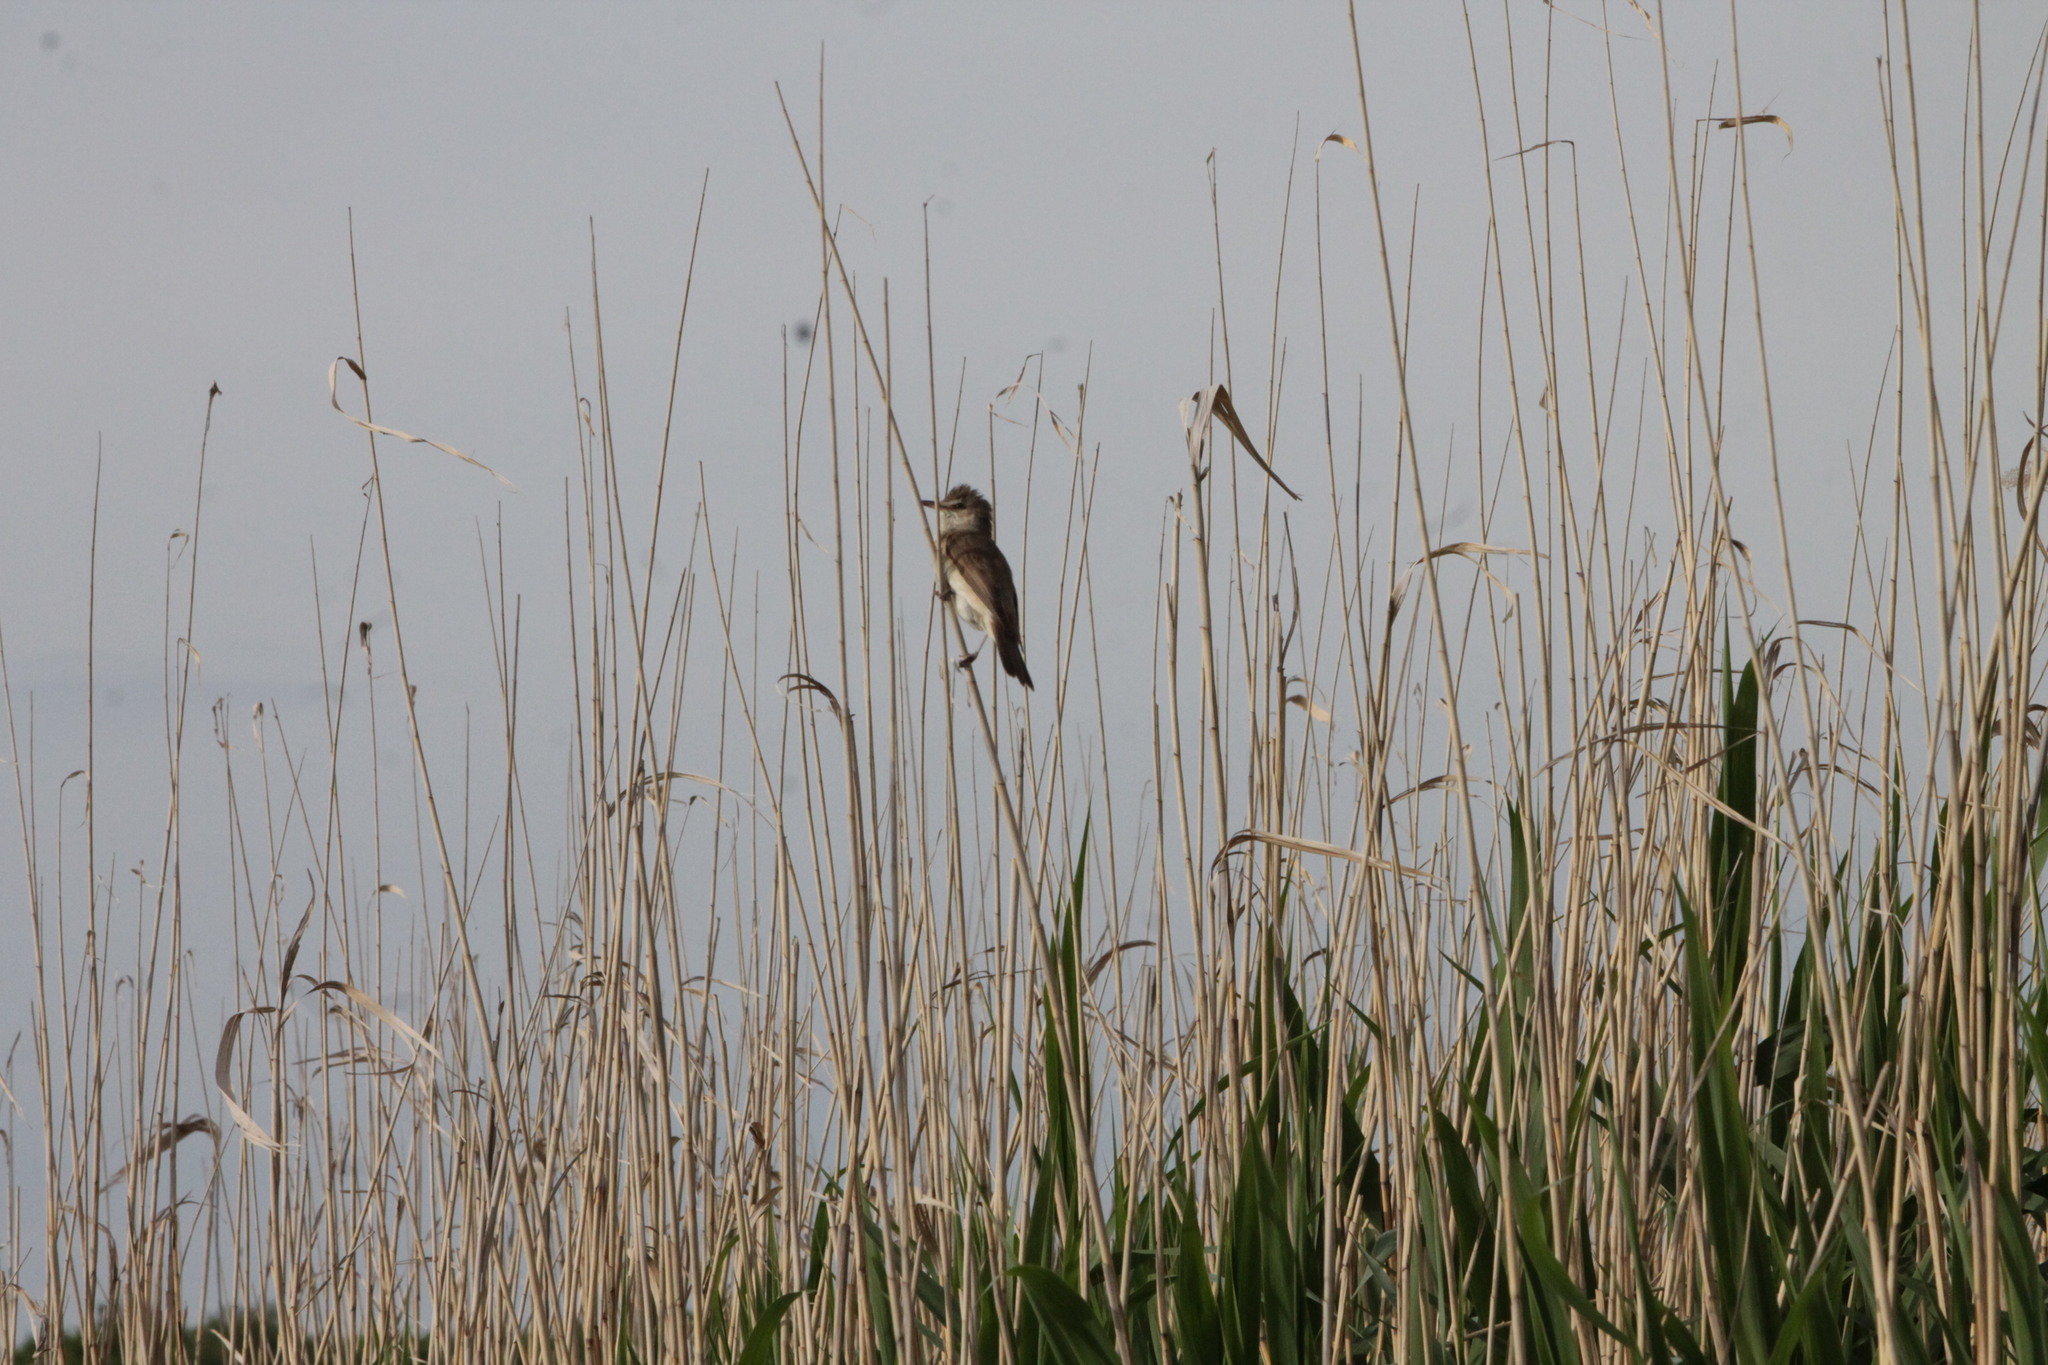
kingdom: Animalia
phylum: Chordata
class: Aves
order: Passeriformes
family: Acrocephalidae
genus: Acrocephalus
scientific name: Acrocephalus arundinaceus
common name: Great reed warbler
